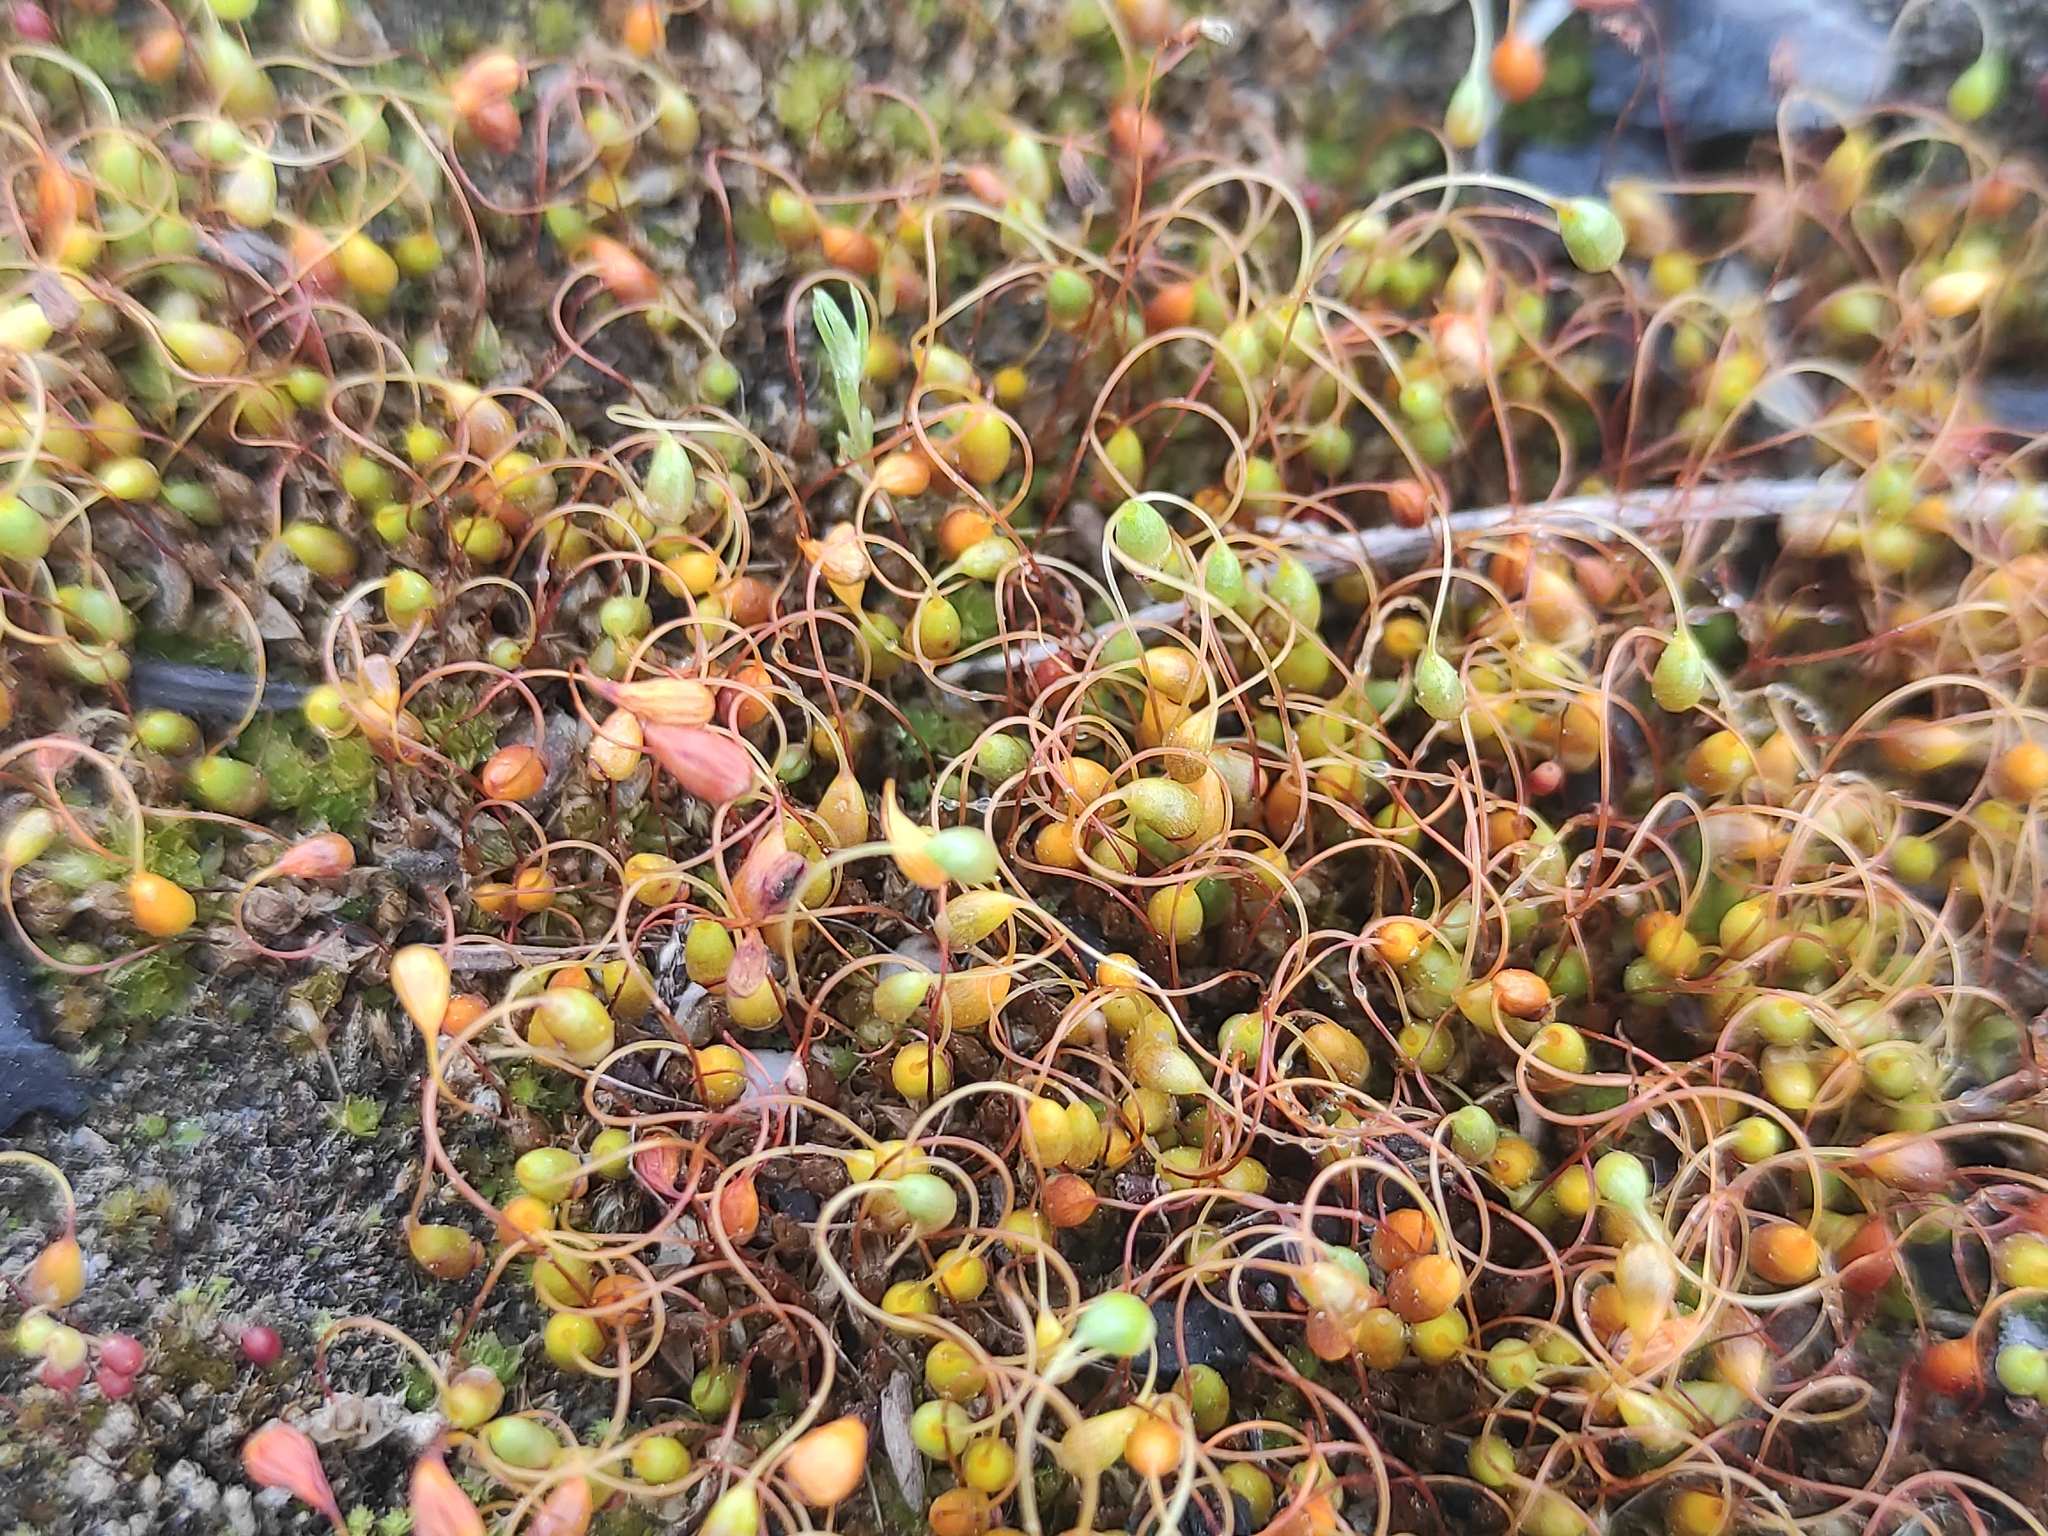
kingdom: Plantae
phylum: Bryophyta
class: Bryopsida
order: Funariales
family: Funariaceae
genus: Funaria
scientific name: Funaria hygrometrica
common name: Common cord moss
